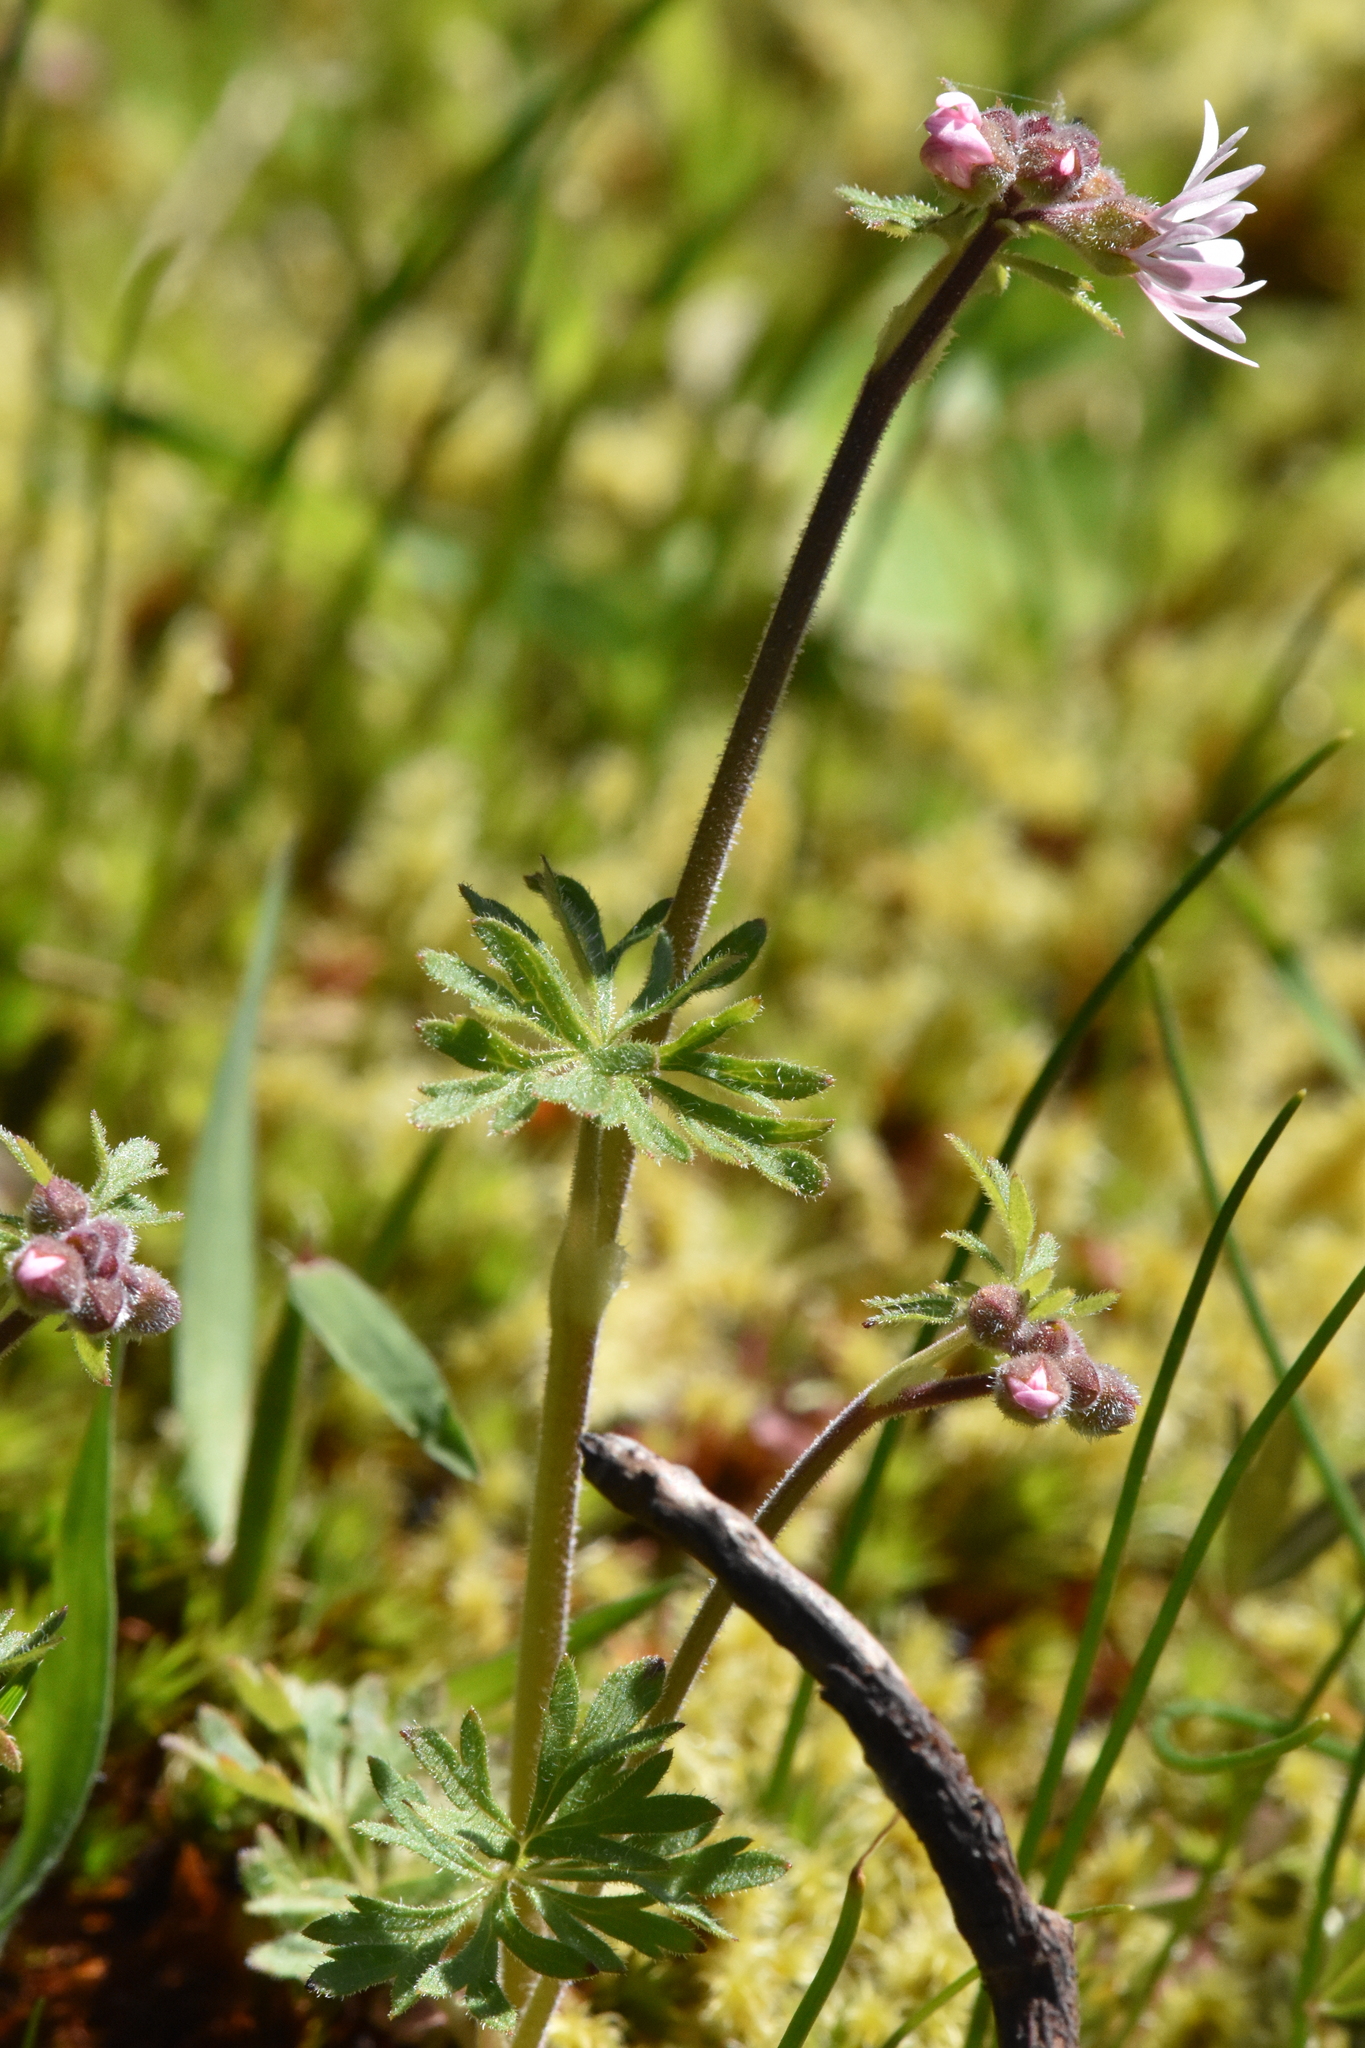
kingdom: Plantae
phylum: Tracheophyta
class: Magnoliopsida
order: Saxifragales
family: Saxifragaceae
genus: Lithophragma
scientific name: Lithophragma parviflorum
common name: Small-flowered fringe-cup
